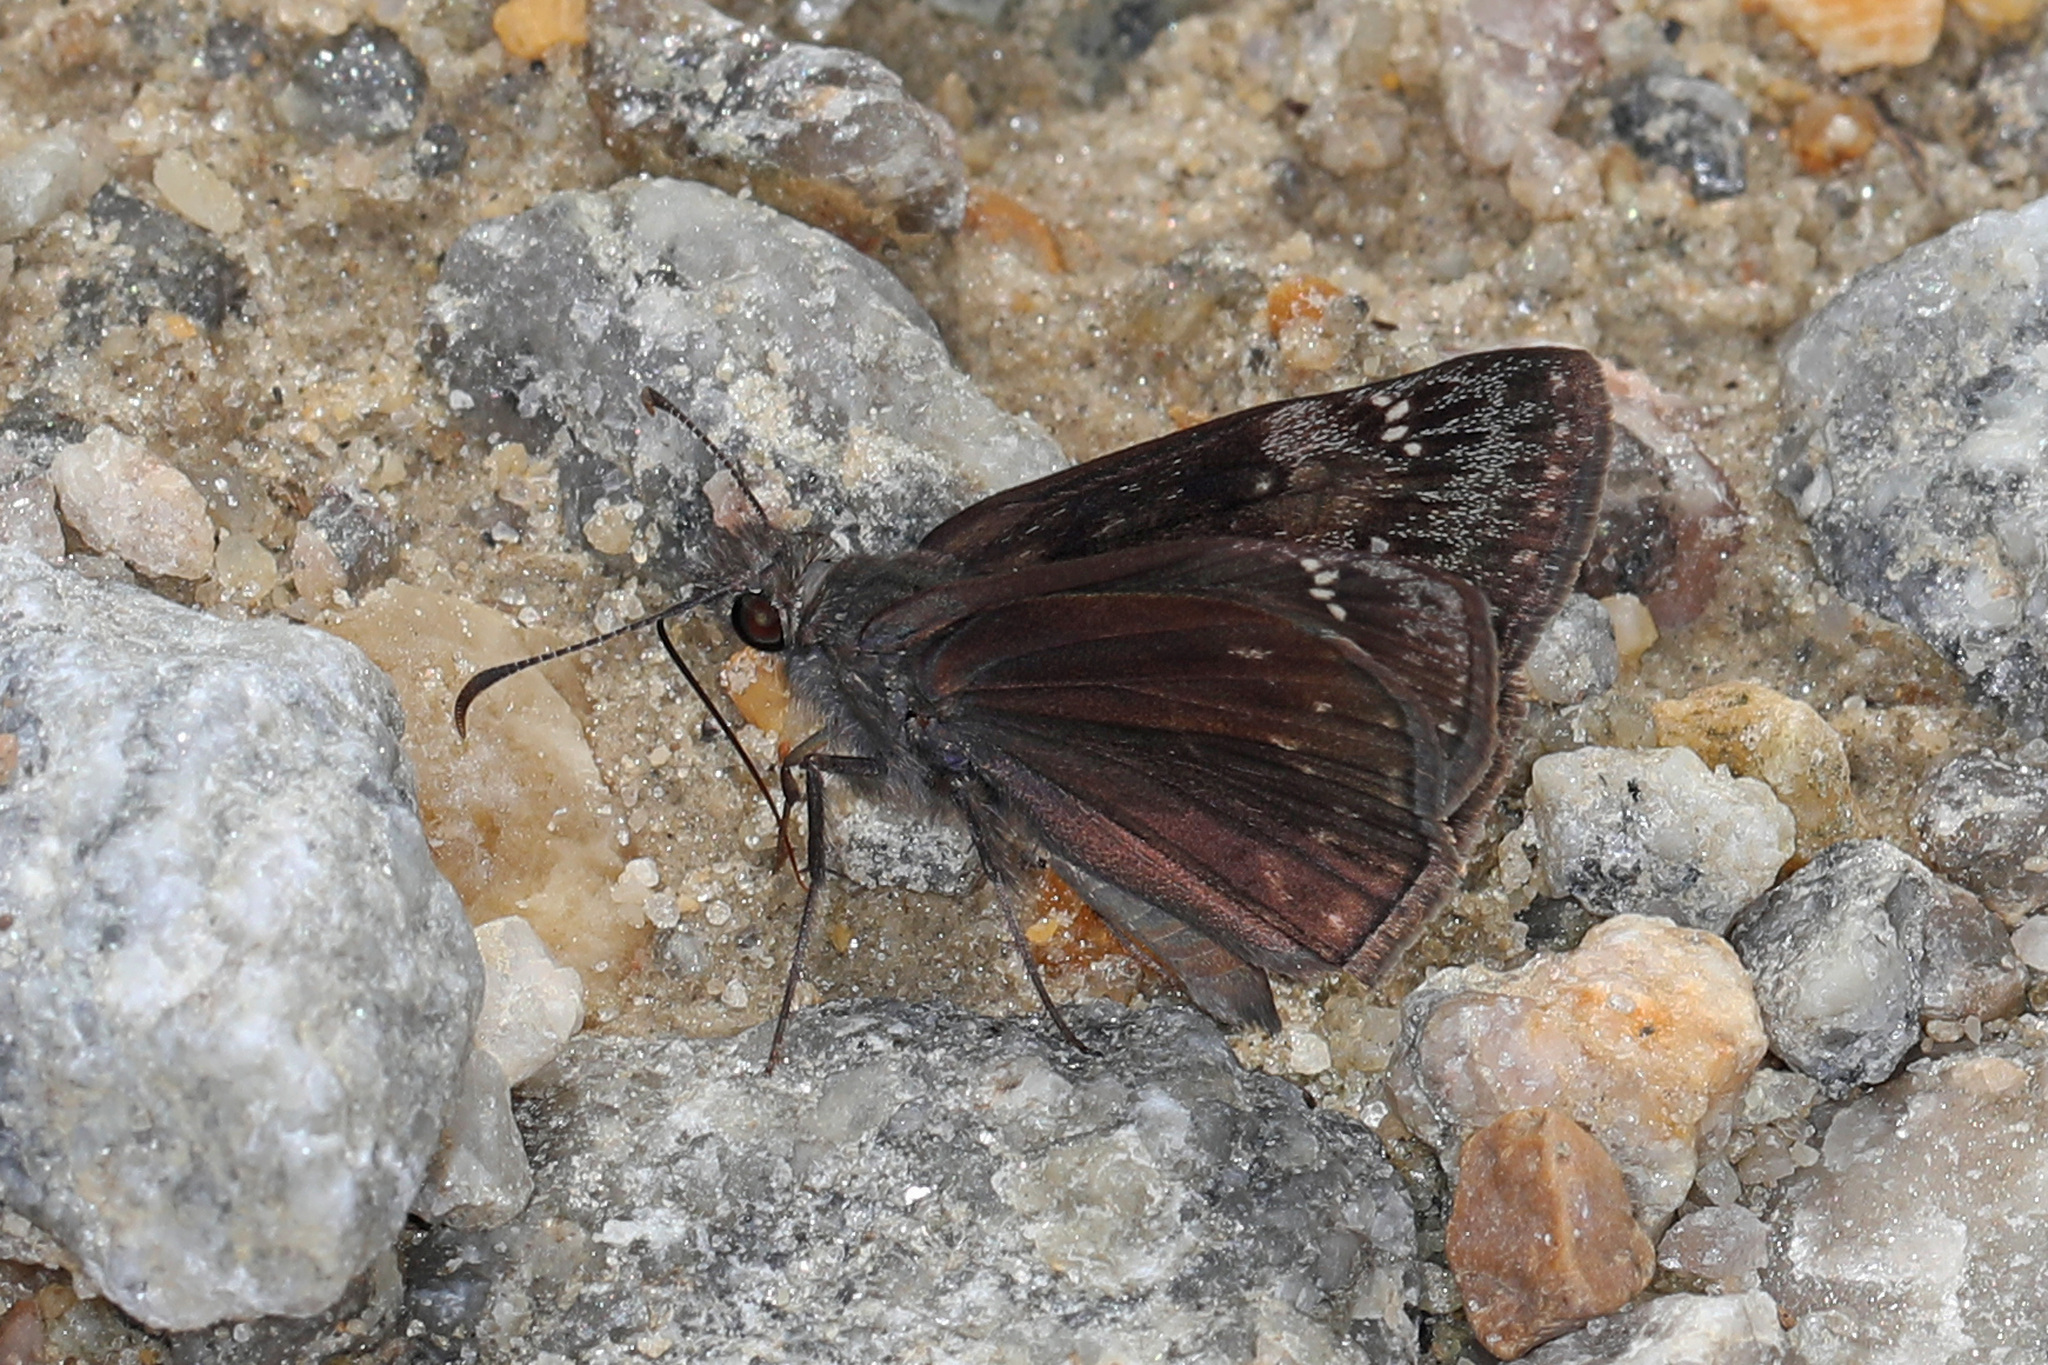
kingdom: Animalia
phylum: Arthropoda
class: Insecta
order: Lepidoptera
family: Hesperiidae
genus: Erynnis
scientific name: Erynnis baptisiae
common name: Wild indigo duskywing
